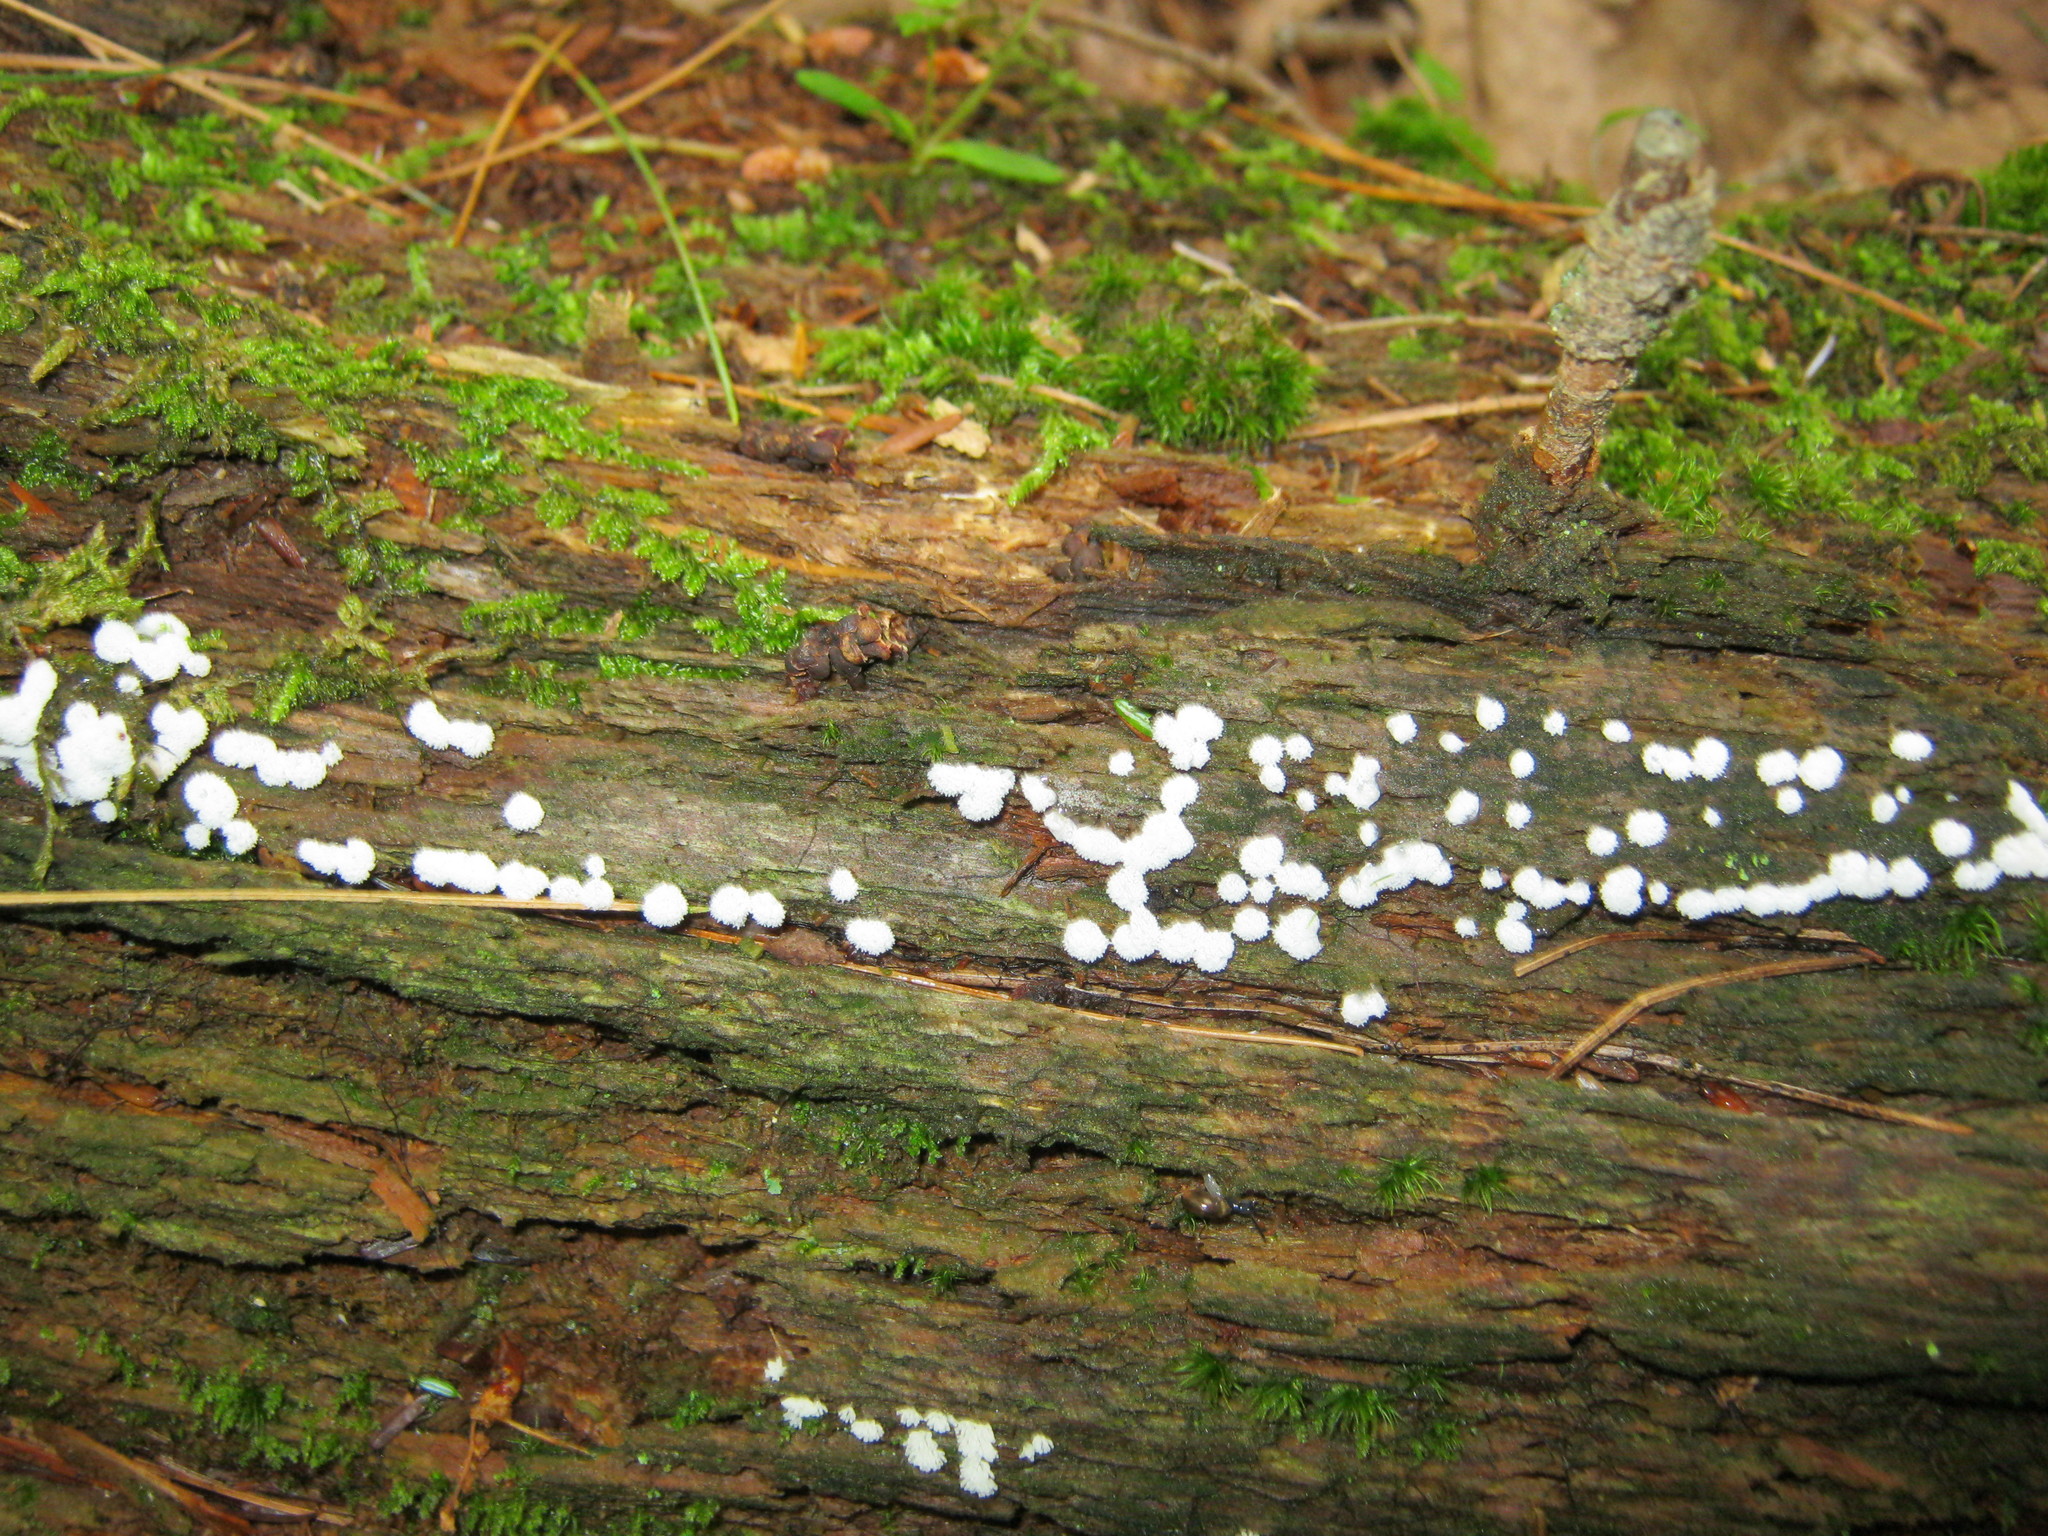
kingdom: Protozoa
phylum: Mycetozoa
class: Protosteliomycetes
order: Ceratiomyxales
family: Ceratiomyxaceae
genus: Ceratiomyxa
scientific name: Ceratiomyxa fruticulosa
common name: Honeycomb coral slime mold
